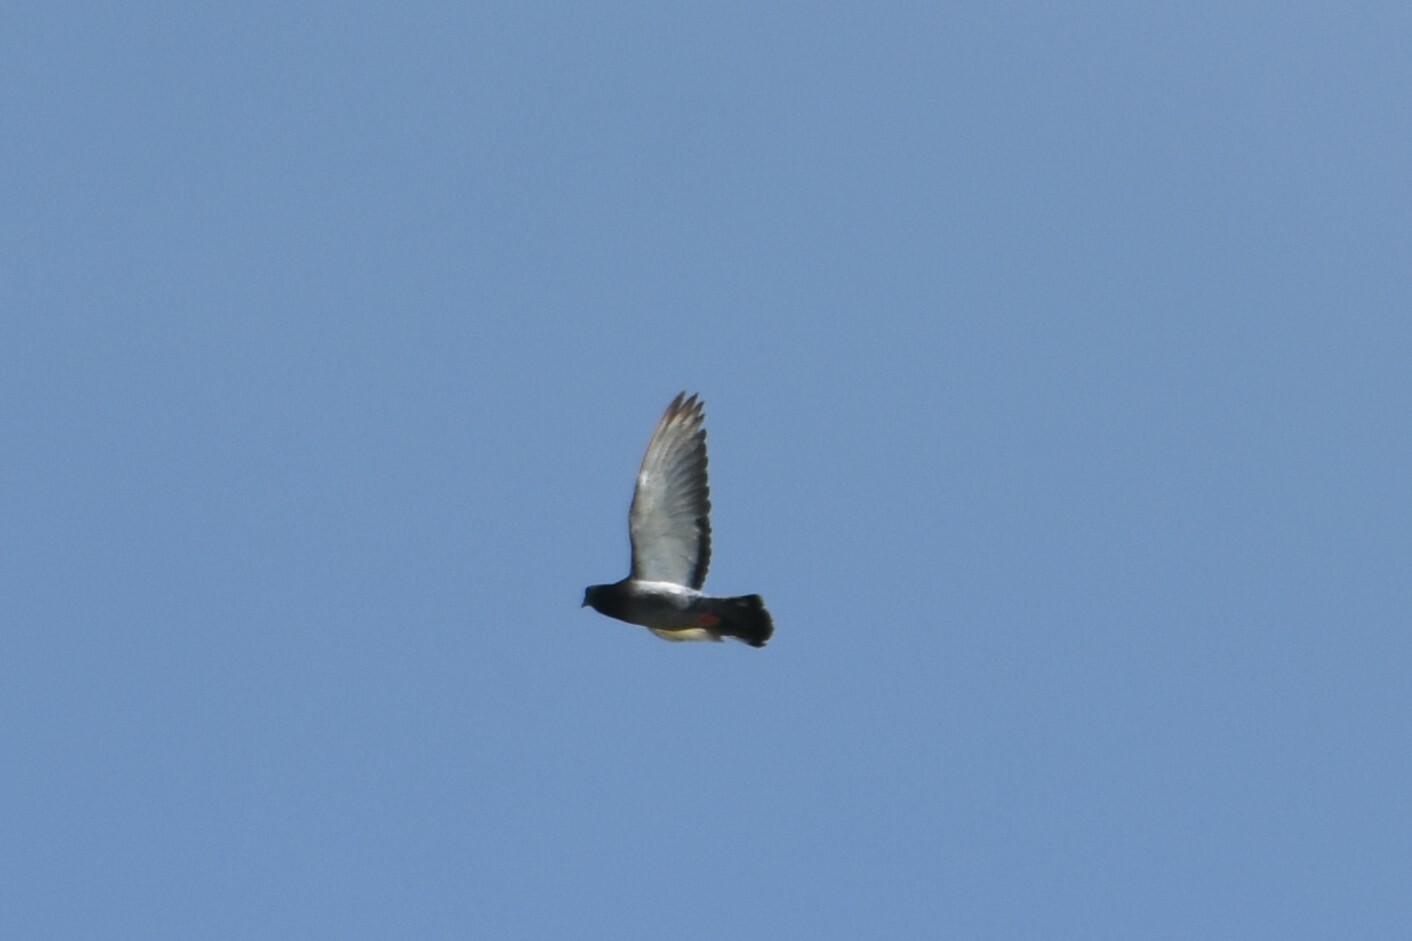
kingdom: Animalia
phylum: Chordata
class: Aves
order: Columbiformes
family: Columbidae
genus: Columba
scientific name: Columba livia
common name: Rock pigeon
